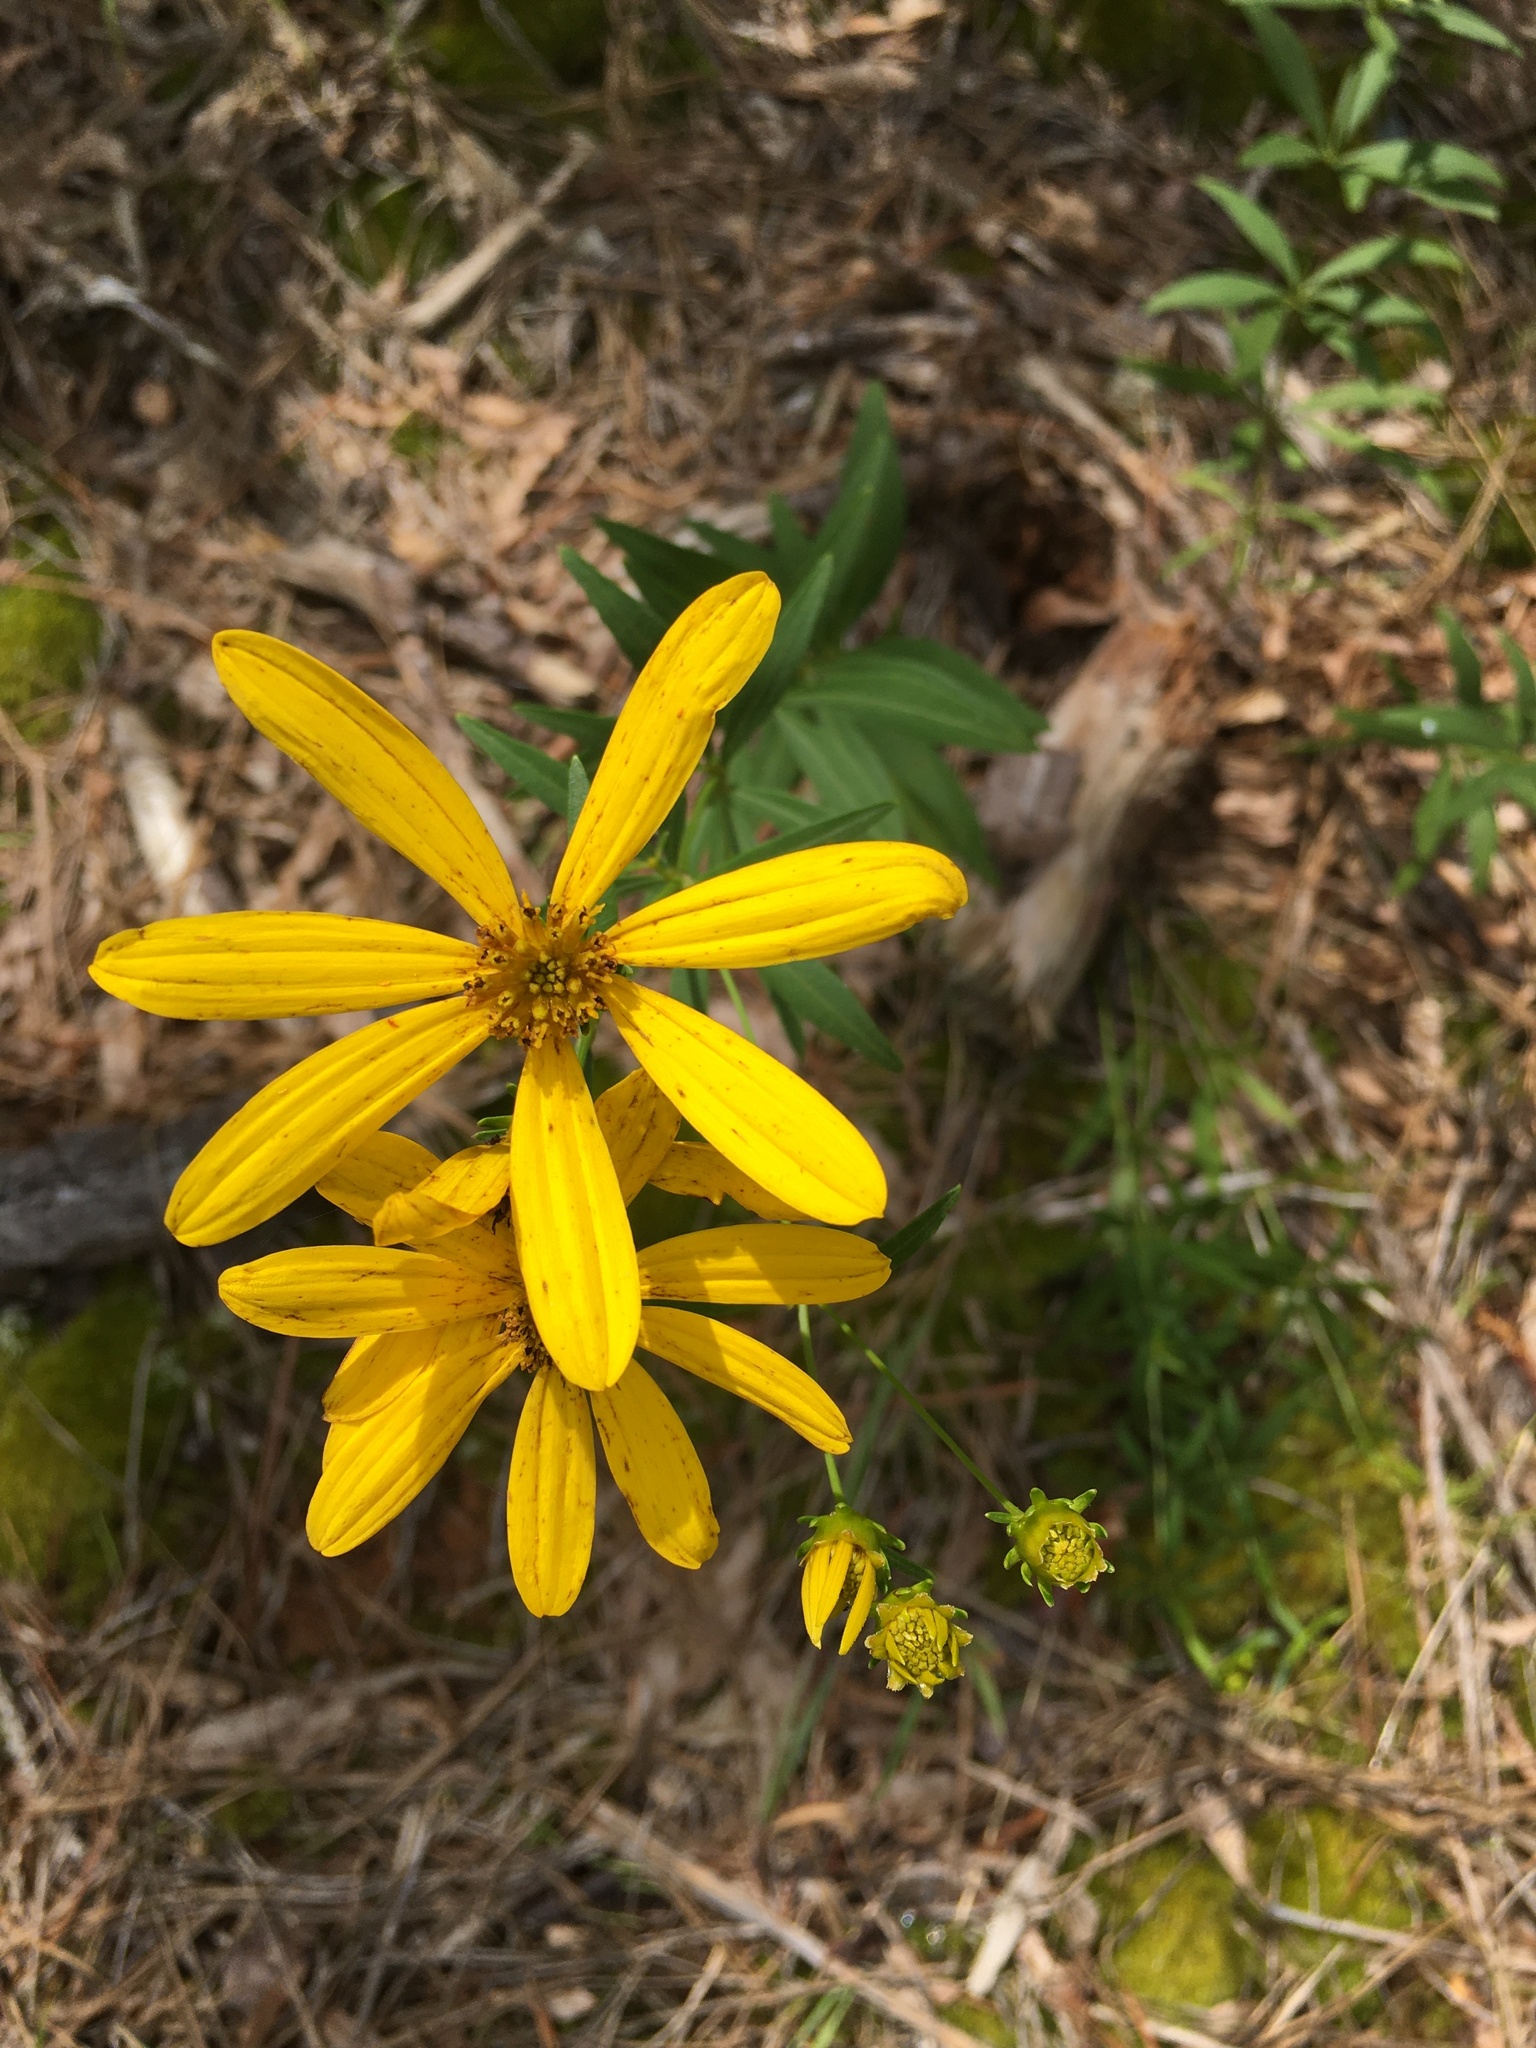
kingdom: Plantae
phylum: Tracheophyta
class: Magnoliopsida
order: Asterales
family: Asteraceae
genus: Coreopsis
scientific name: Coreopsis major
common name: Forest tickseed
